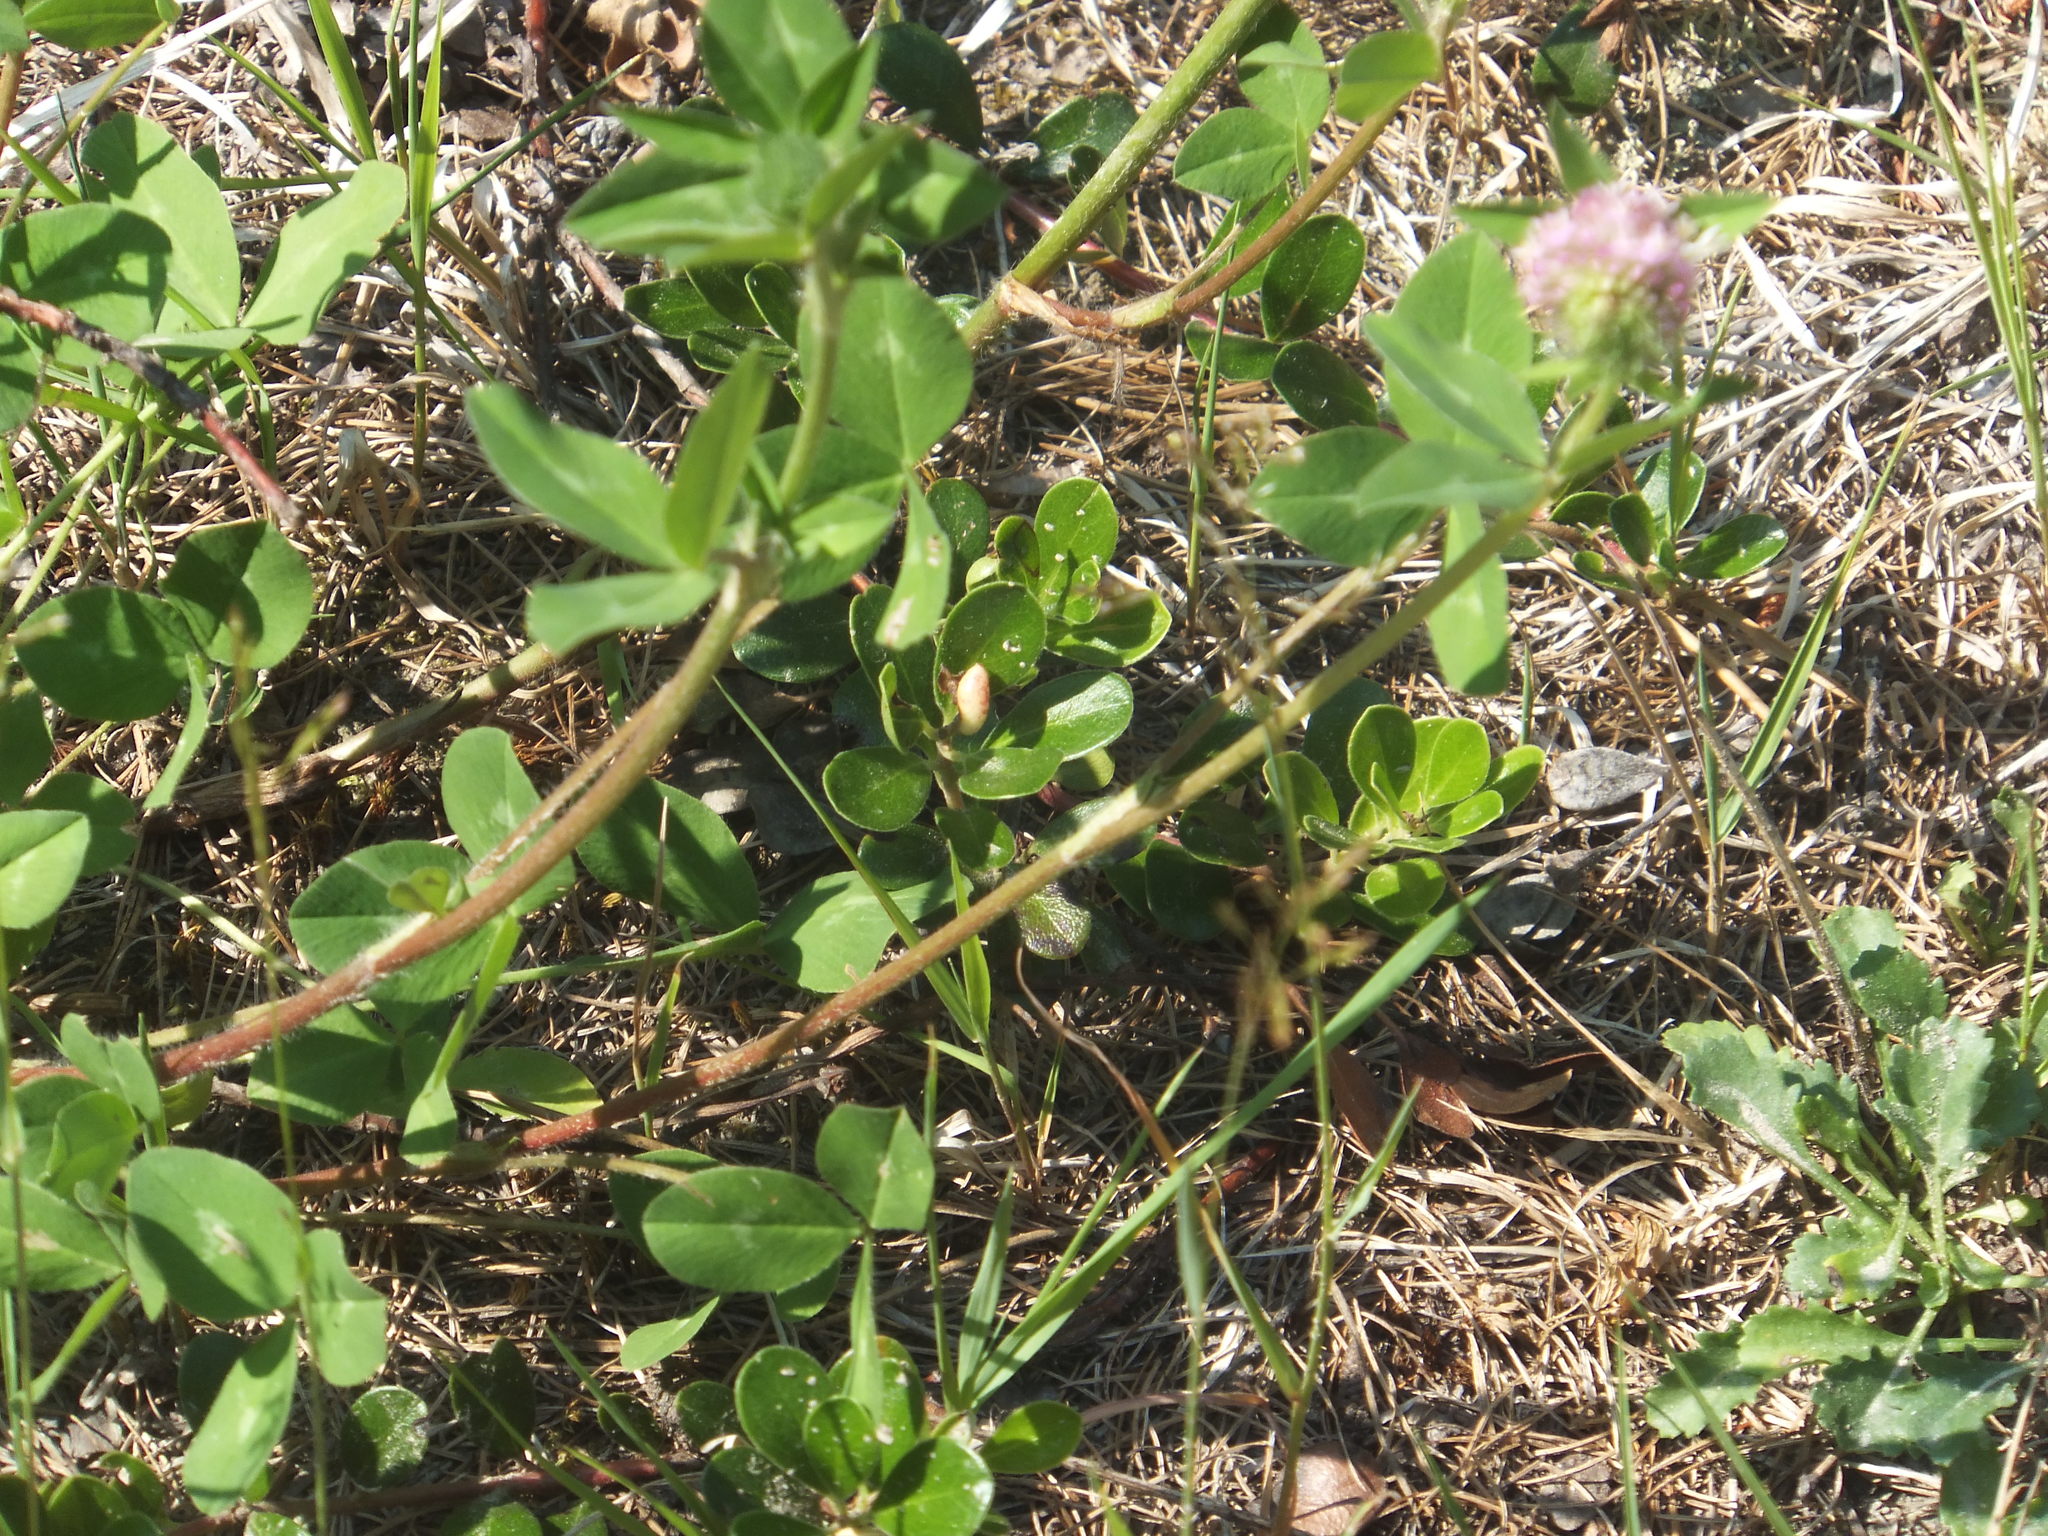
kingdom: Plantae
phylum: Tracheophyta
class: Magnoliopsida
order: Fabales
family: Fabaceae
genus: Trifolium
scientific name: Trifolium pratense
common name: Red clover
